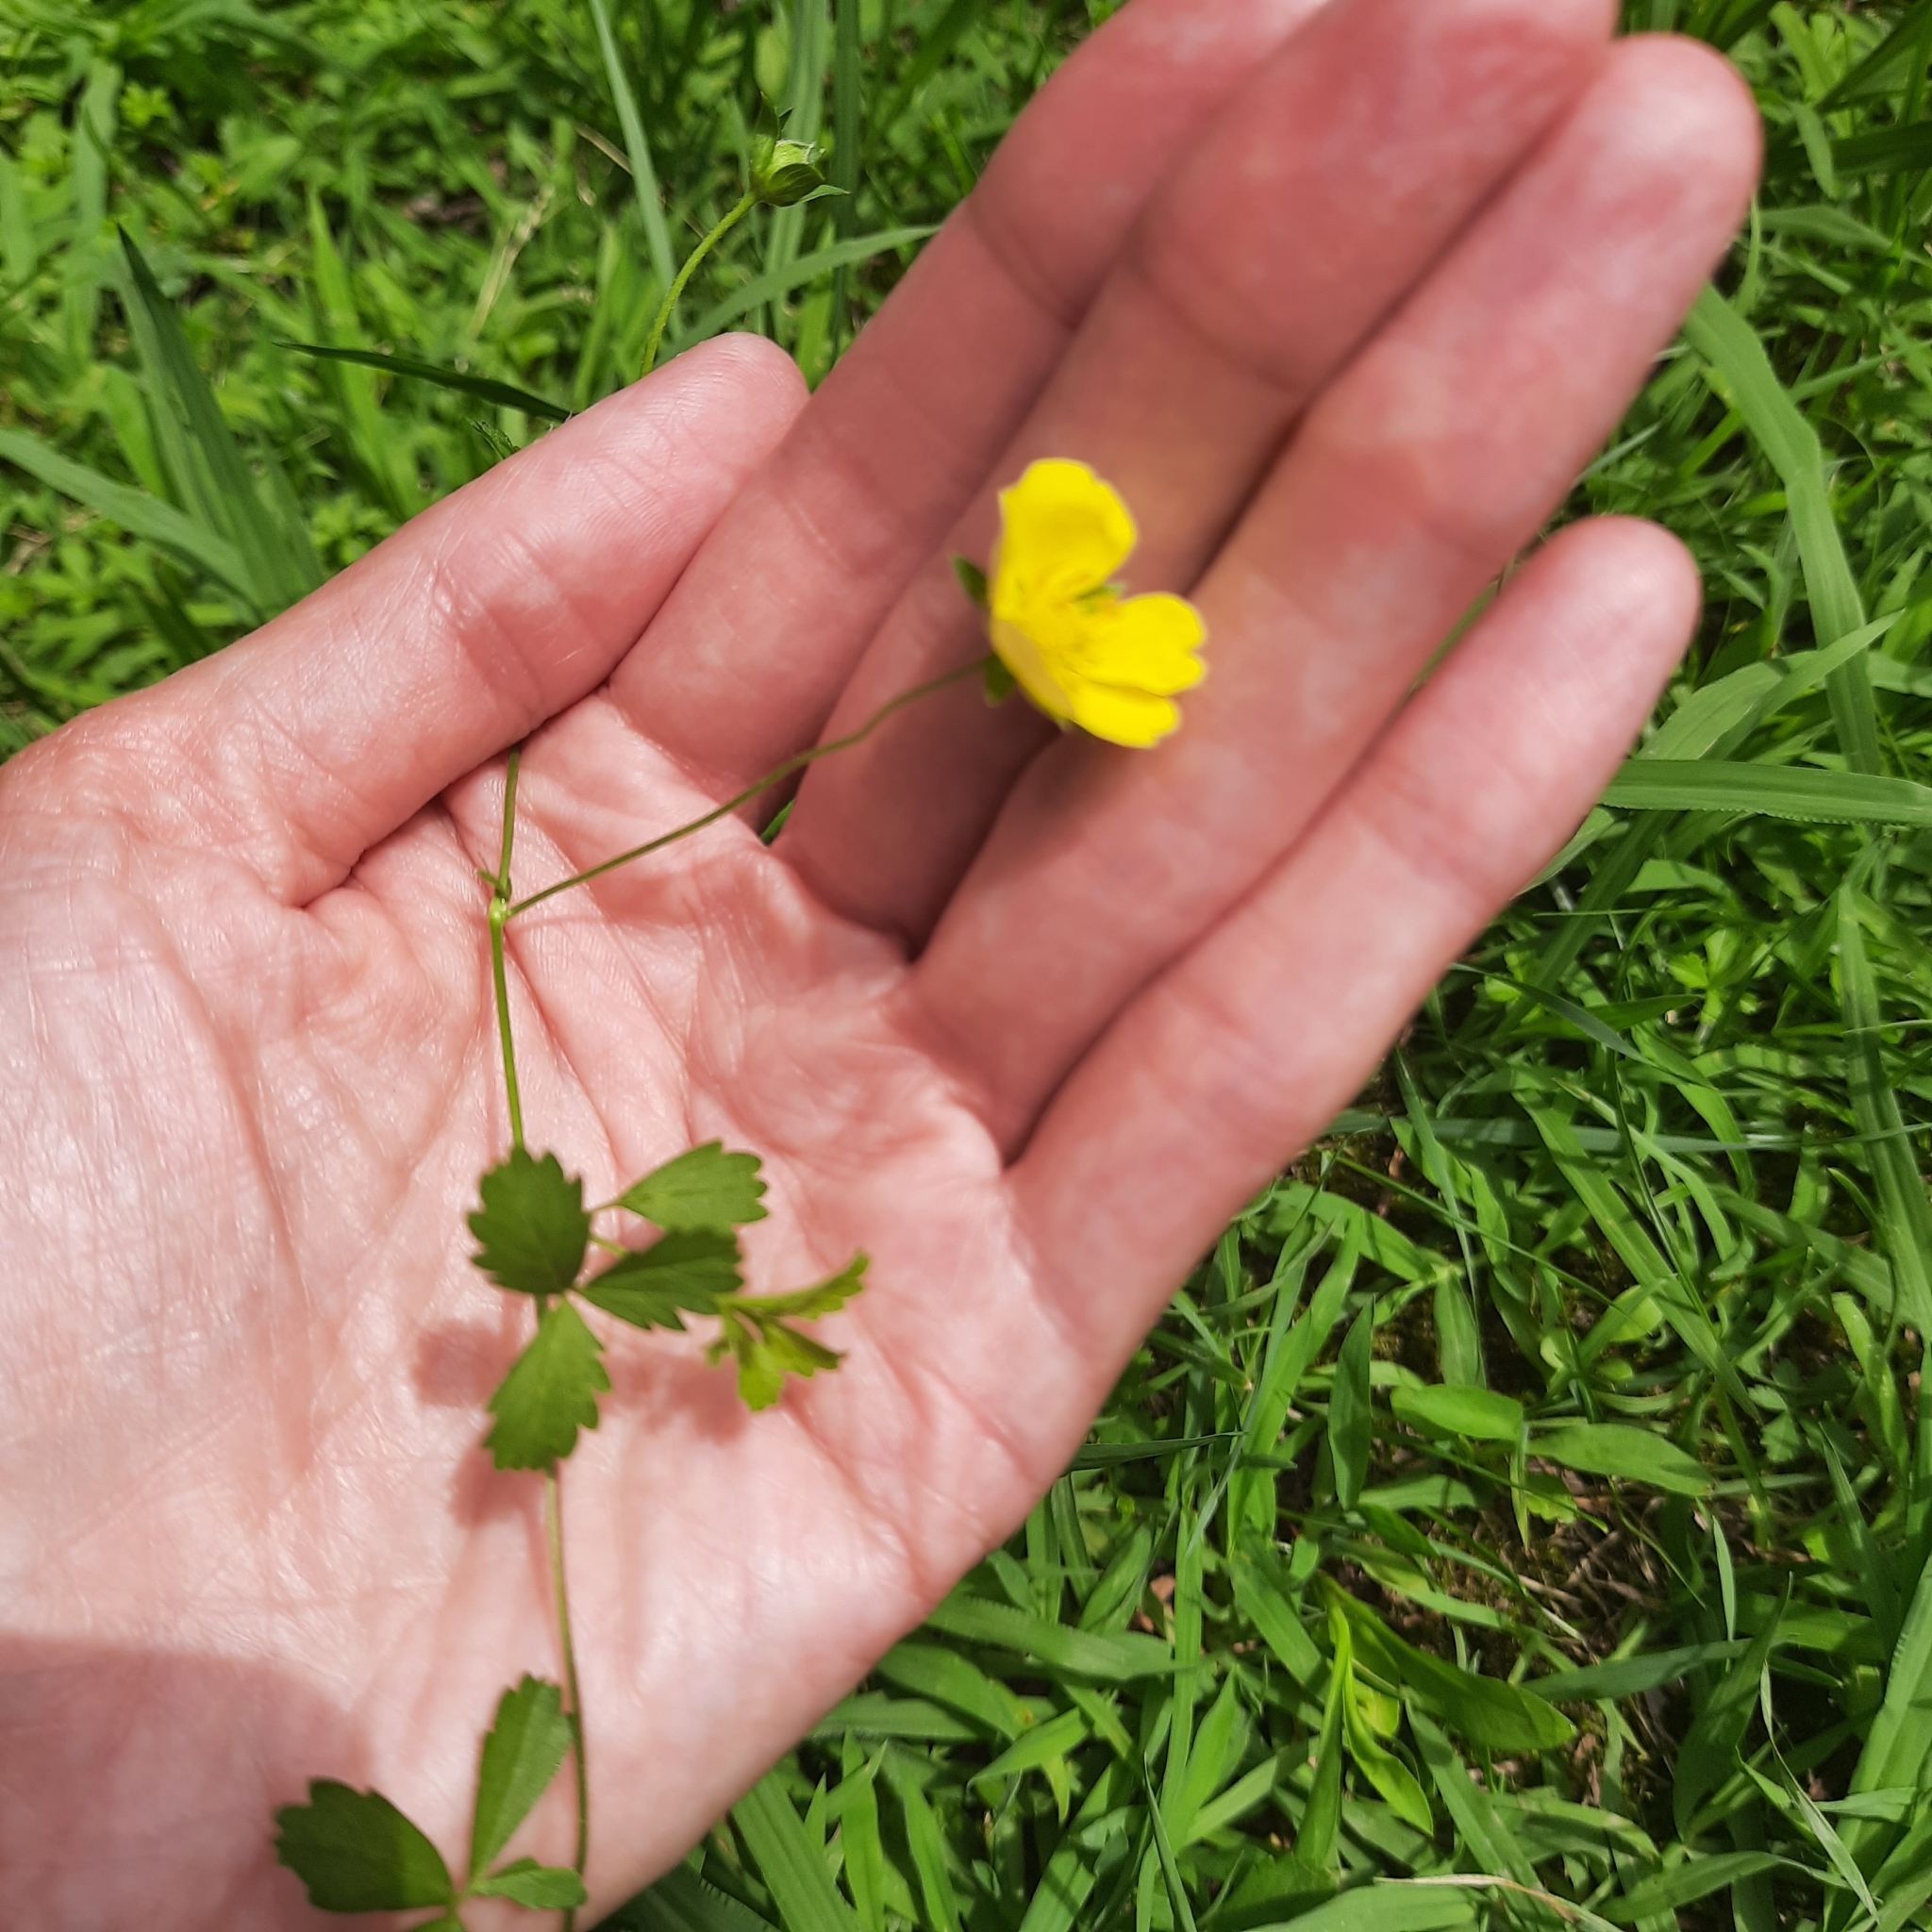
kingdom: Plantae
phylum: Tracheophyta
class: Magnoliopsida
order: Rosales
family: Rosaceae
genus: Potentilla
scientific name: Potentilla reptans
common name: Creeping cinquefoil
